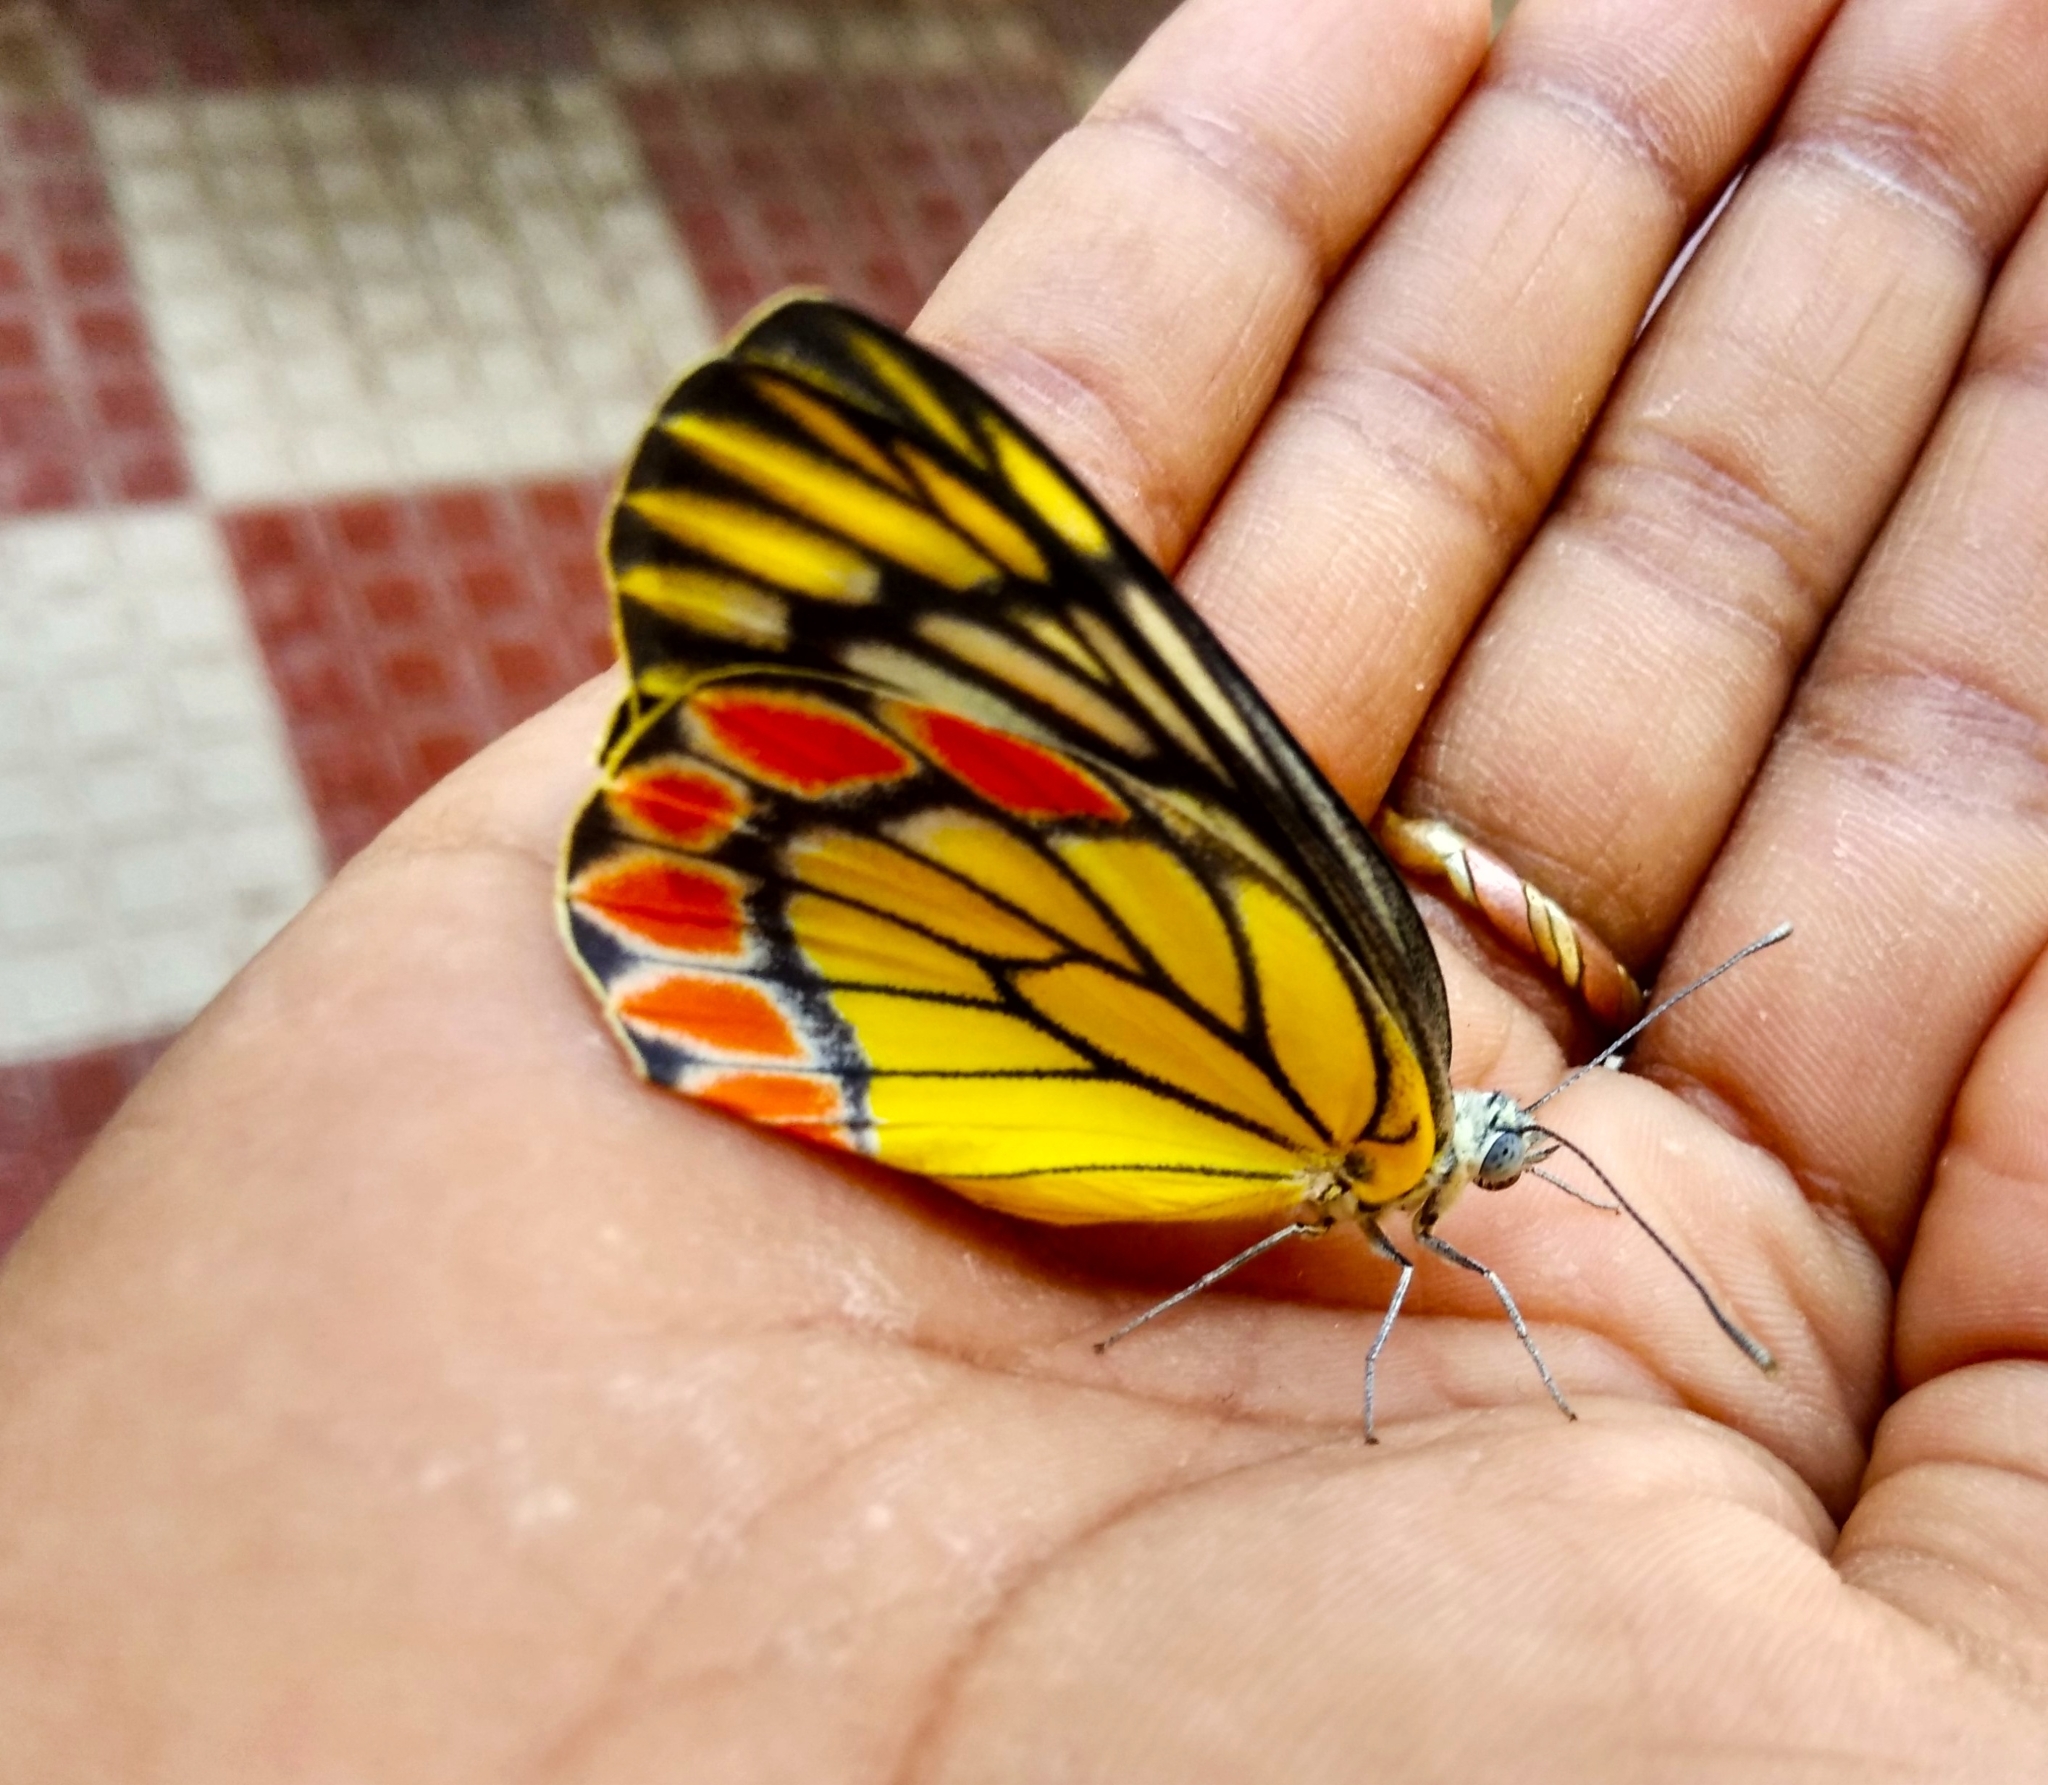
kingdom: Animalia
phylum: Arthropoda
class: Insecta
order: Lepidoptera
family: Pieridae
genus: Delias
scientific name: Delias eucharis
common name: Common jezebel
